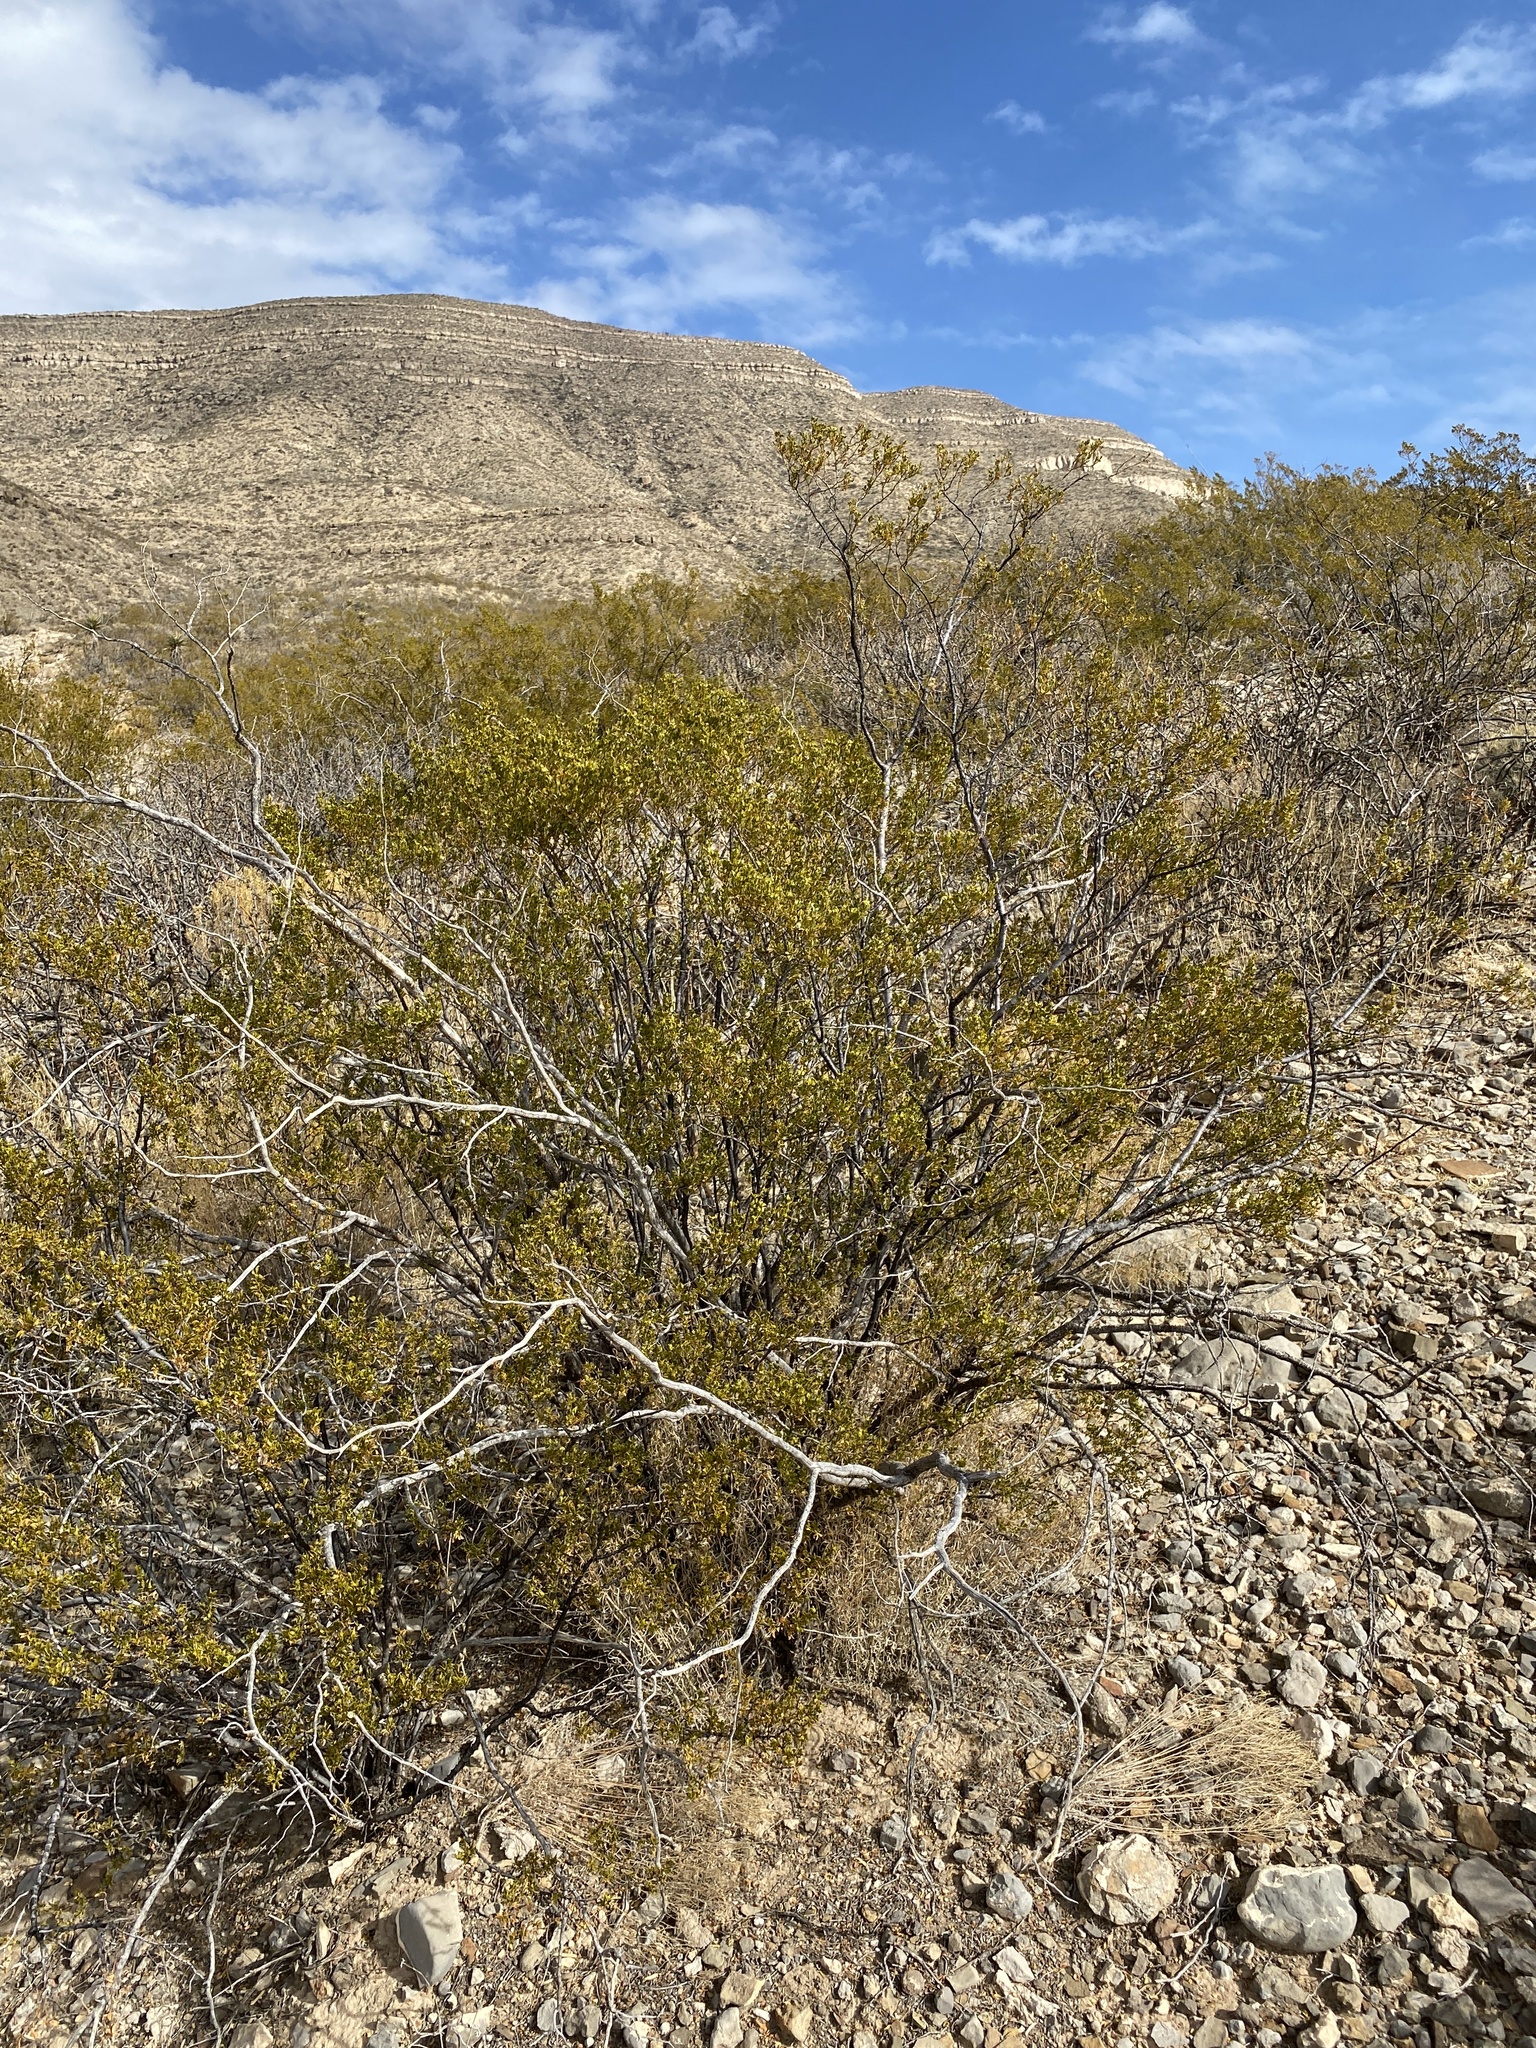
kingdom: Plantae
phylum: Tracheophyta
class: Magnoliopsida
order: Zygophyllales
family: Zygophyllaceae
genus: Larrea
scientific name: Larrea tridentata
